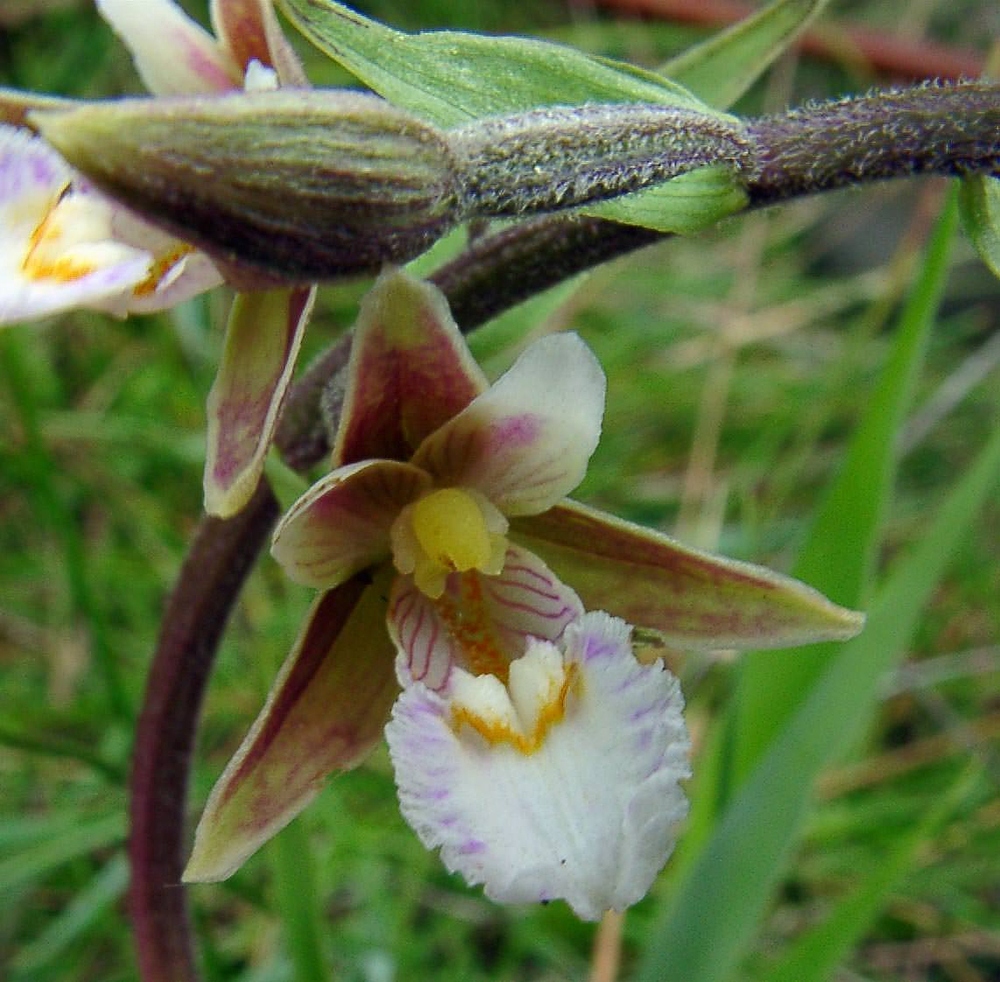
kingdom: Plantae
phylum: Tracheophyta
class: Liliopsida
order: Asparagales
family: Orchidaceae
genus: Epipactis
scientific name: Epipactis palustris
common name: Marsh helleborine
